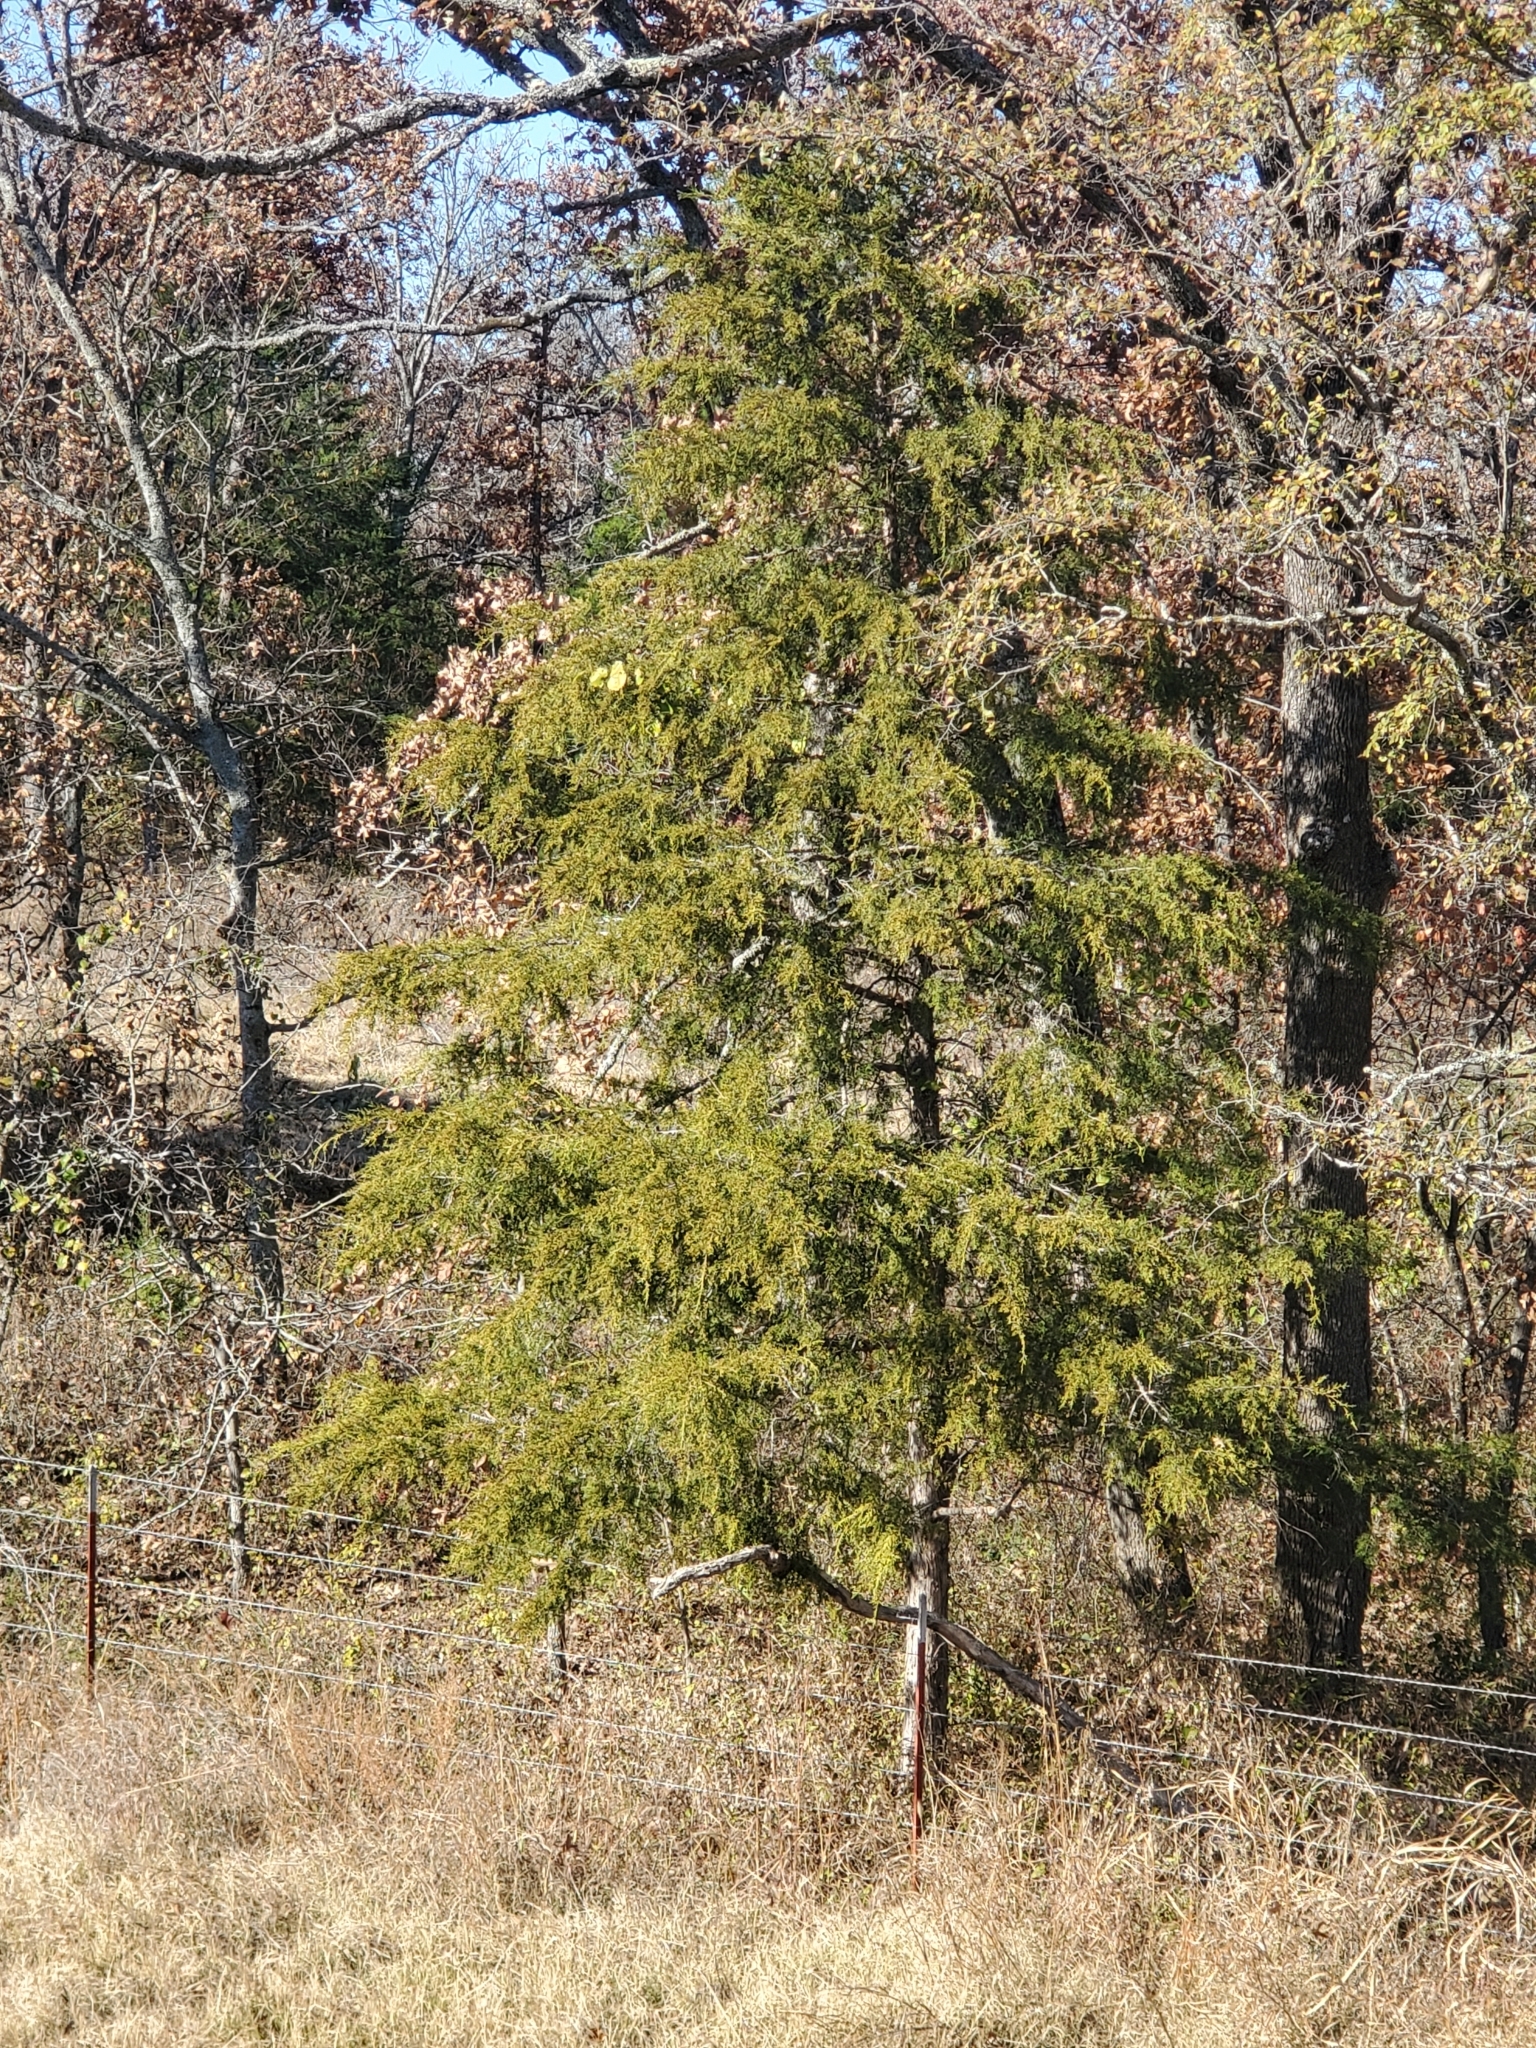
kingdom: Plantae
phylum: Tracheophyta
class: Pinopsida
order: Pinales
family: Cupressaceae
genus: Juniperus
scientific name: Juniperus virginiana
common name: Red juniper
